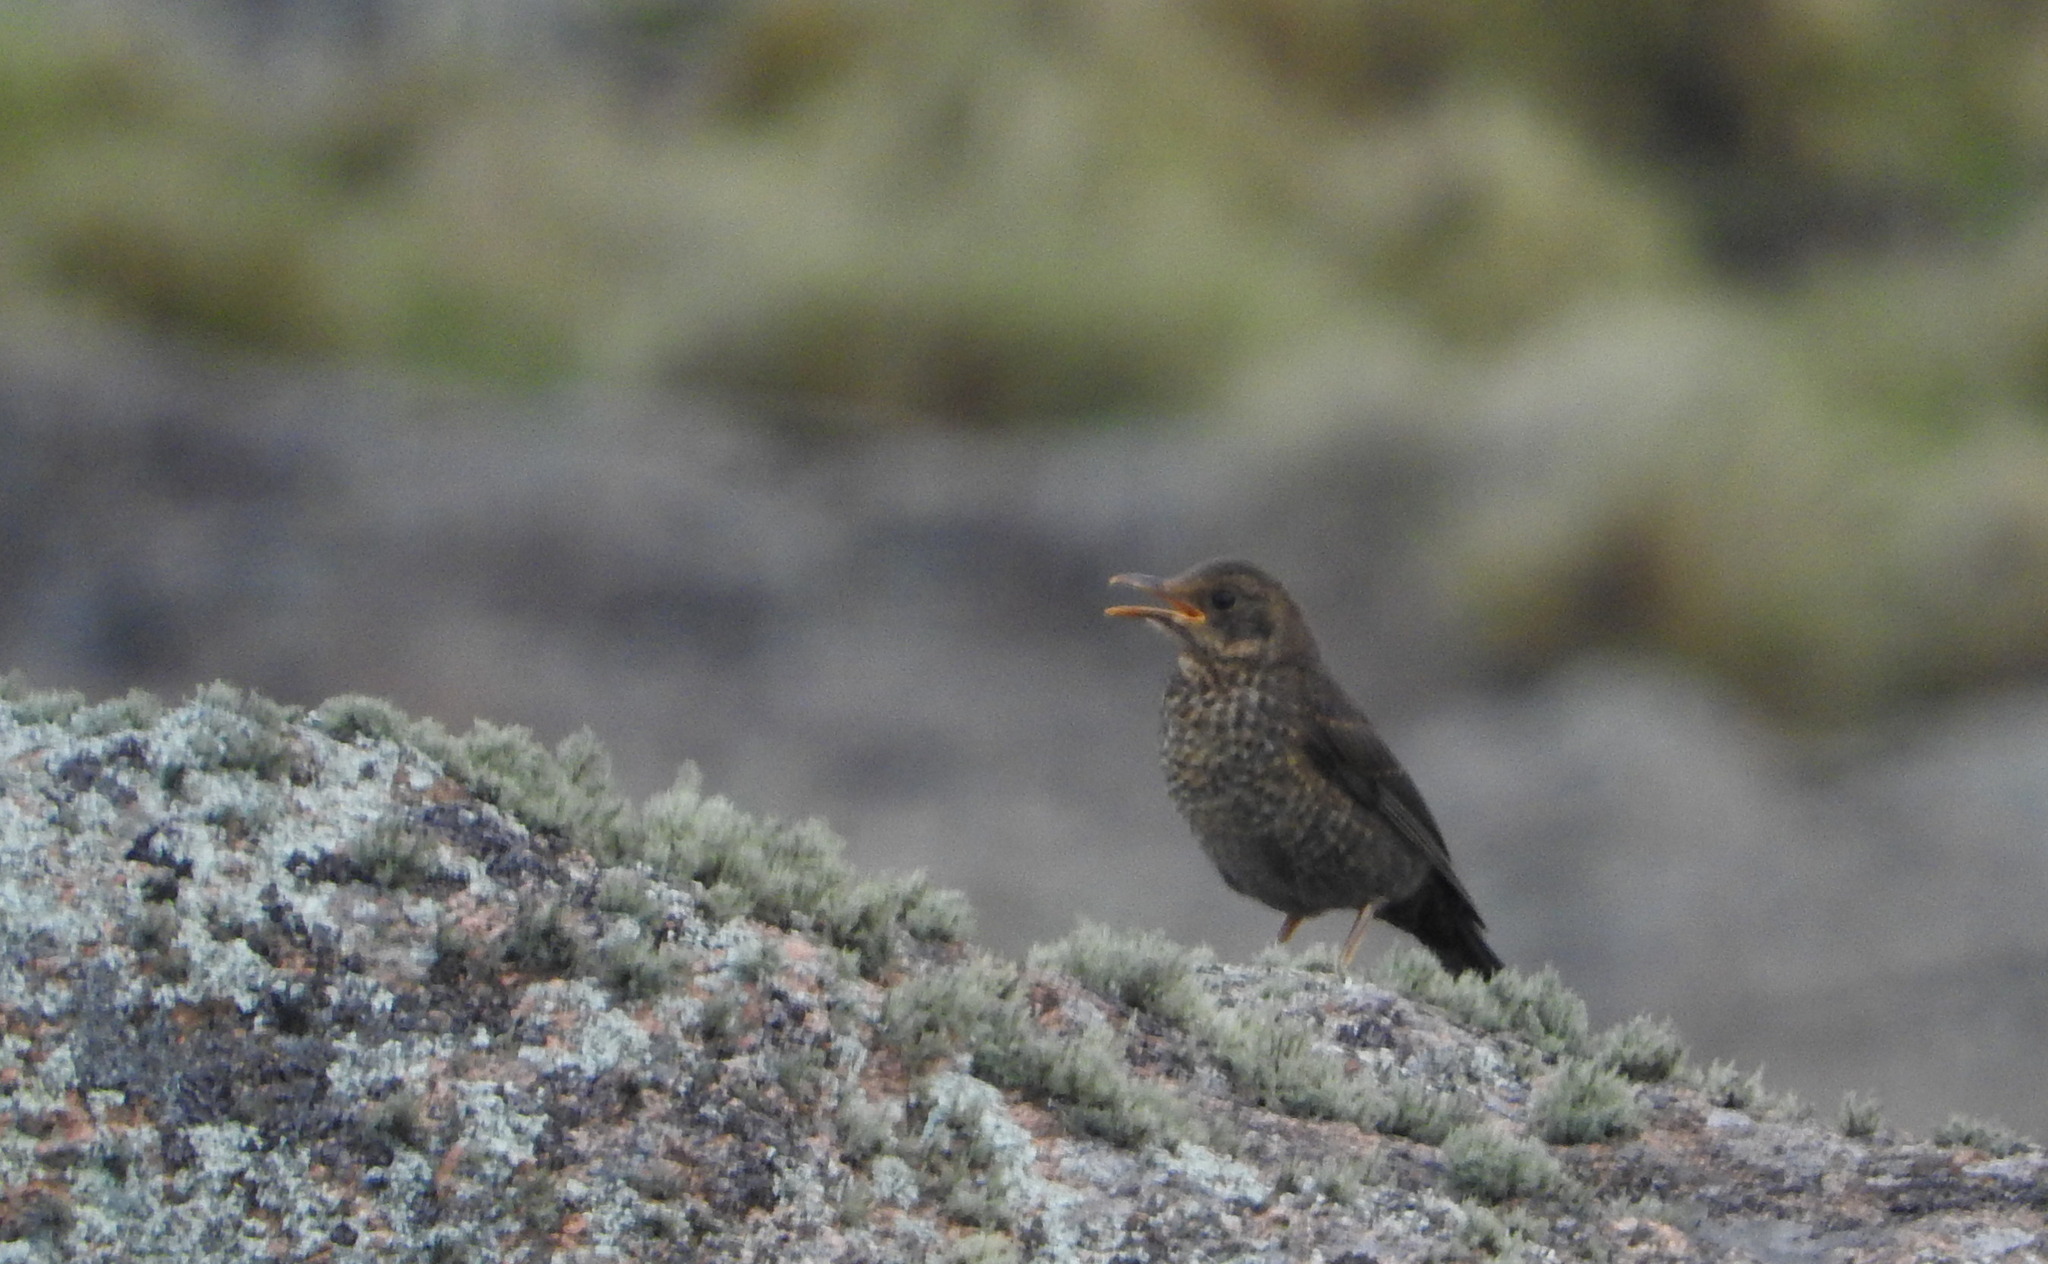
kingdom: Animalia
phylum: Chordata
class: Aves
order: Passeriformes
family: Turdidae
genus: Turdus
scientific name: Turdus chiguanco
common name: Chiguanco thrush
